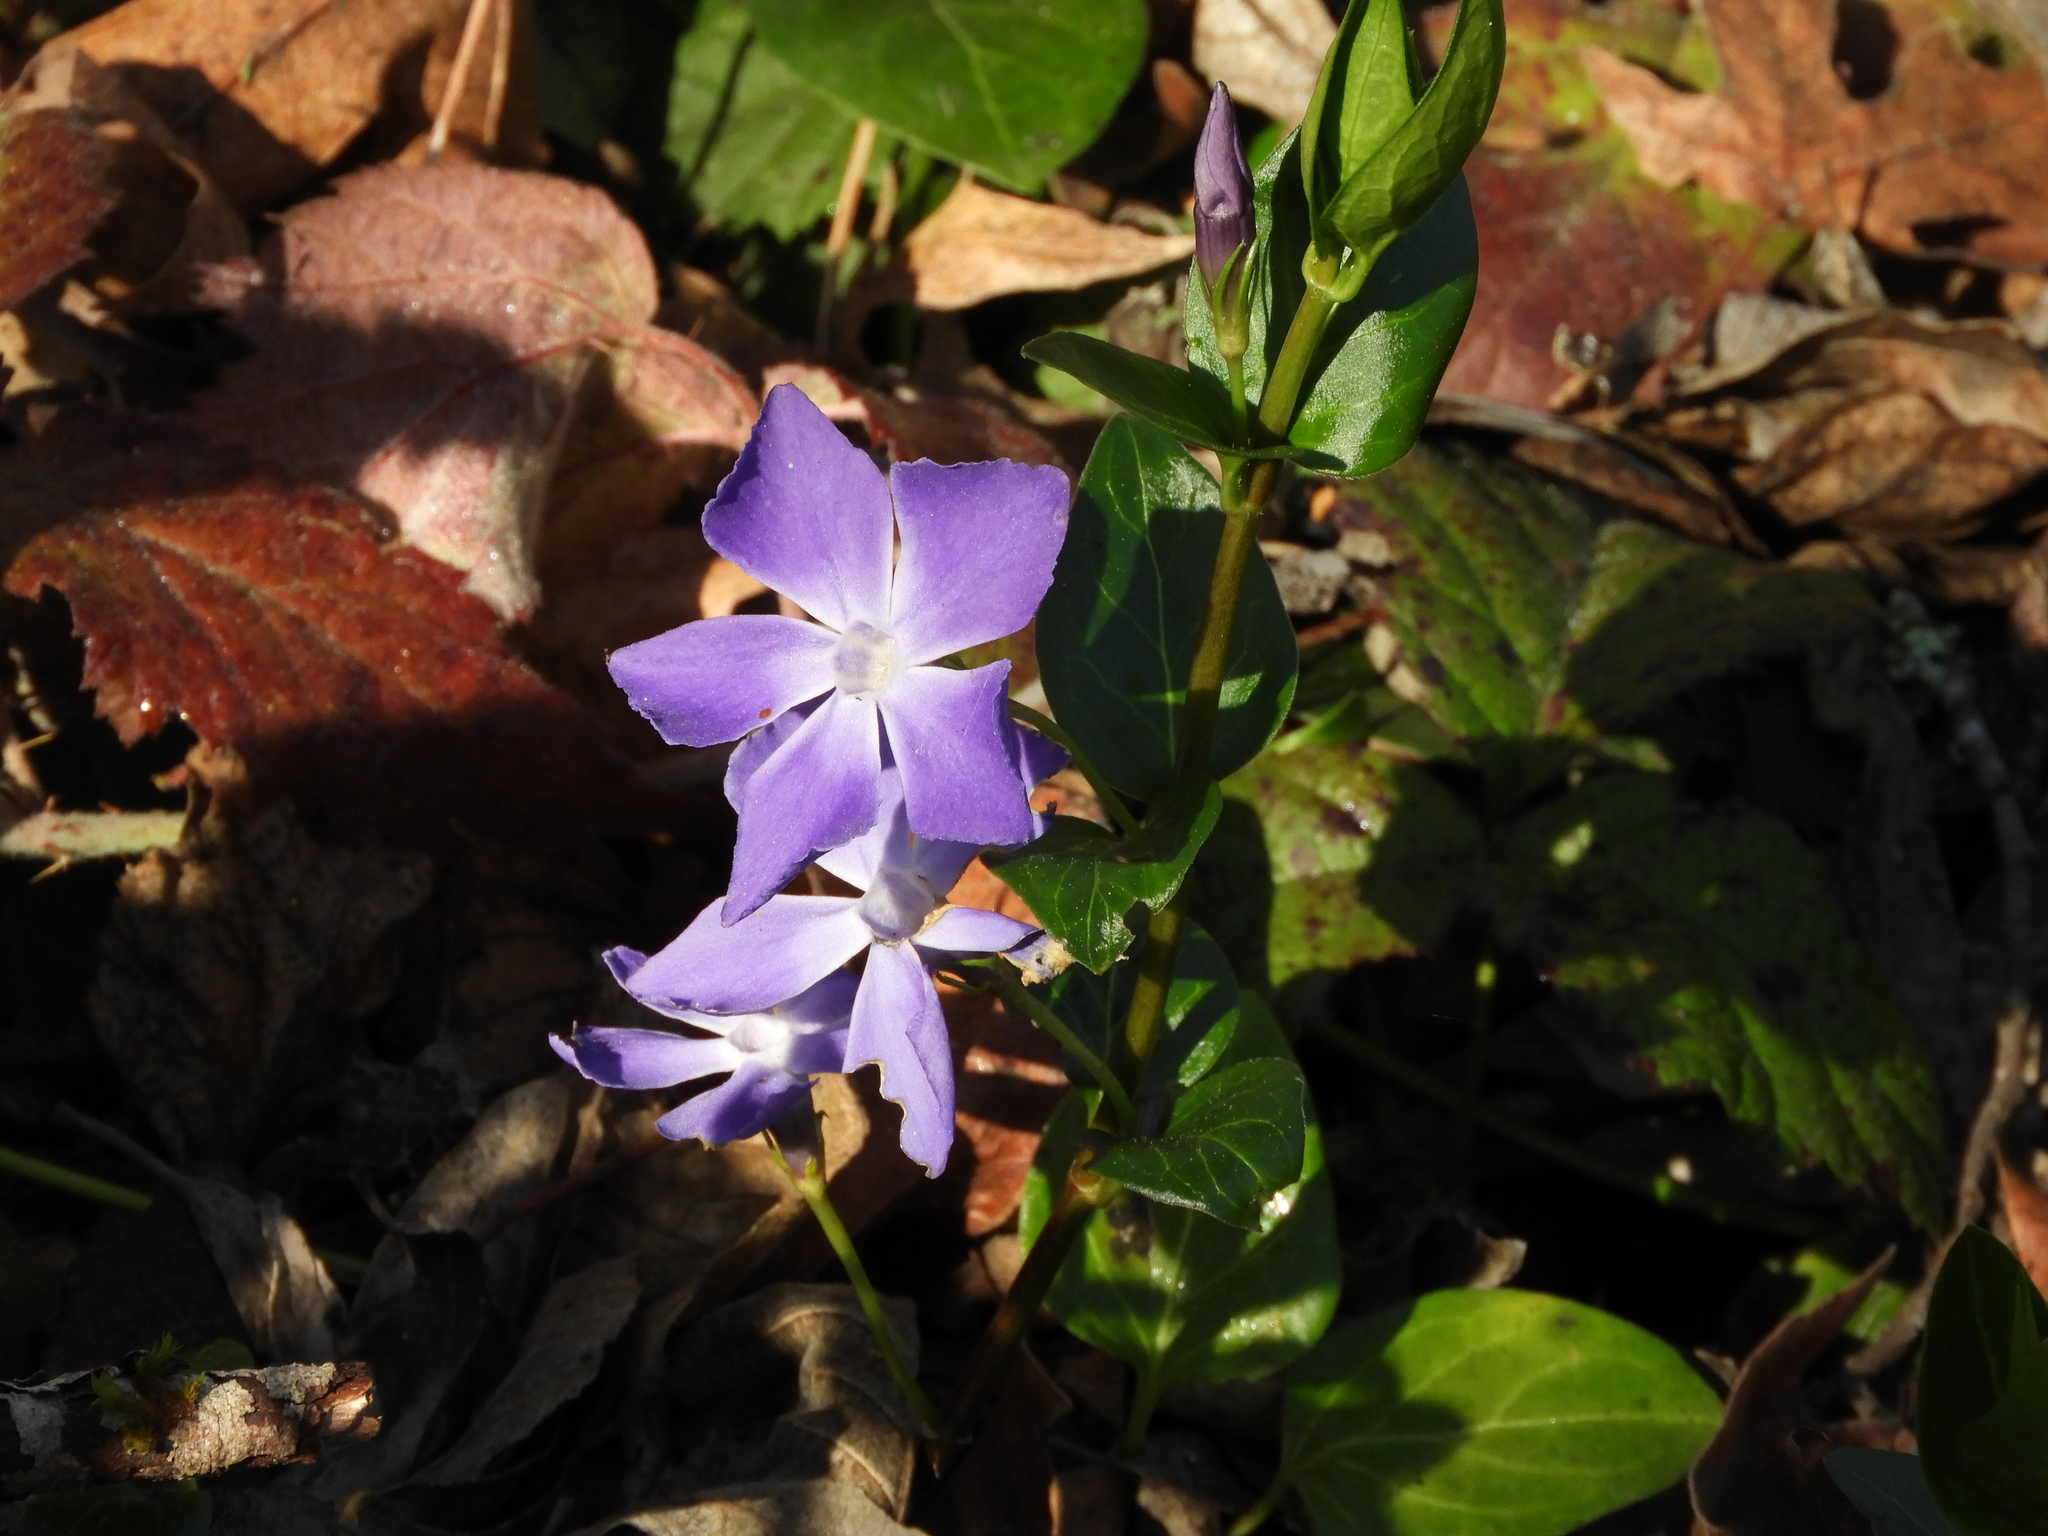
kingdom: Plantae
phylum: Tracheophyta
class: Magnoliopsida
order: Gentianales
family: Apocynaceae
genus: Vinca
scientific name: Vinca major
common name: Greater periwinkle
